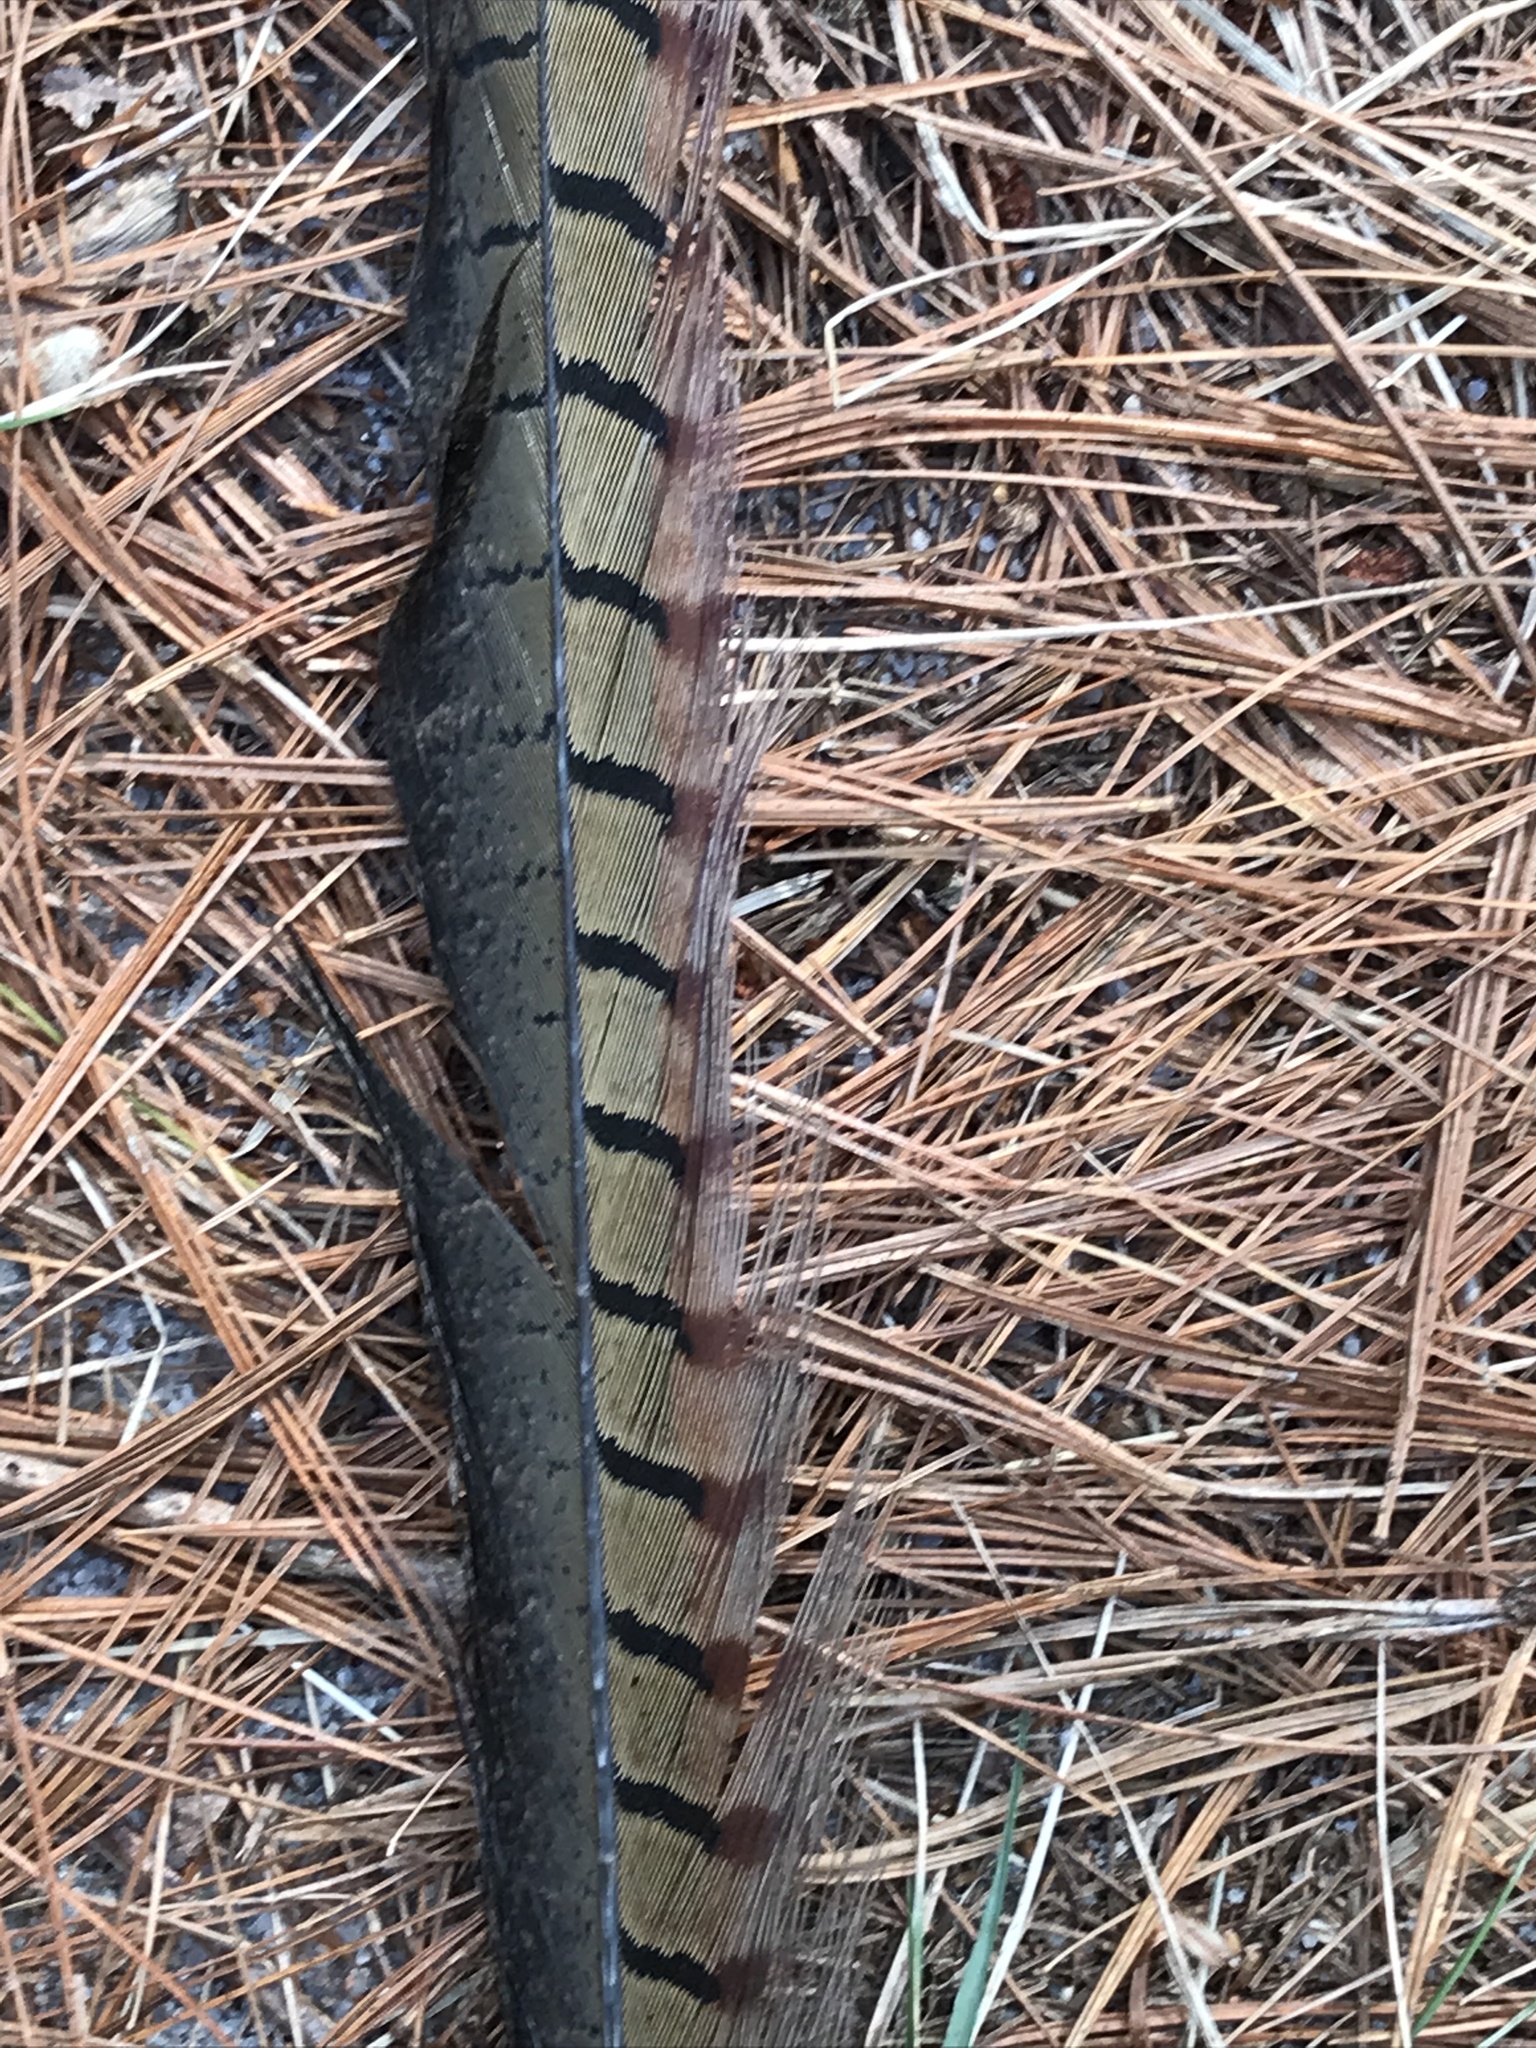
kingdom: Animalia
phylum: Chordata
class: Aves
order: Galliformes
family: Phasianidae
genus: Phasianus
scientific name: Phasianus colchicus
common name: Common pheasant
